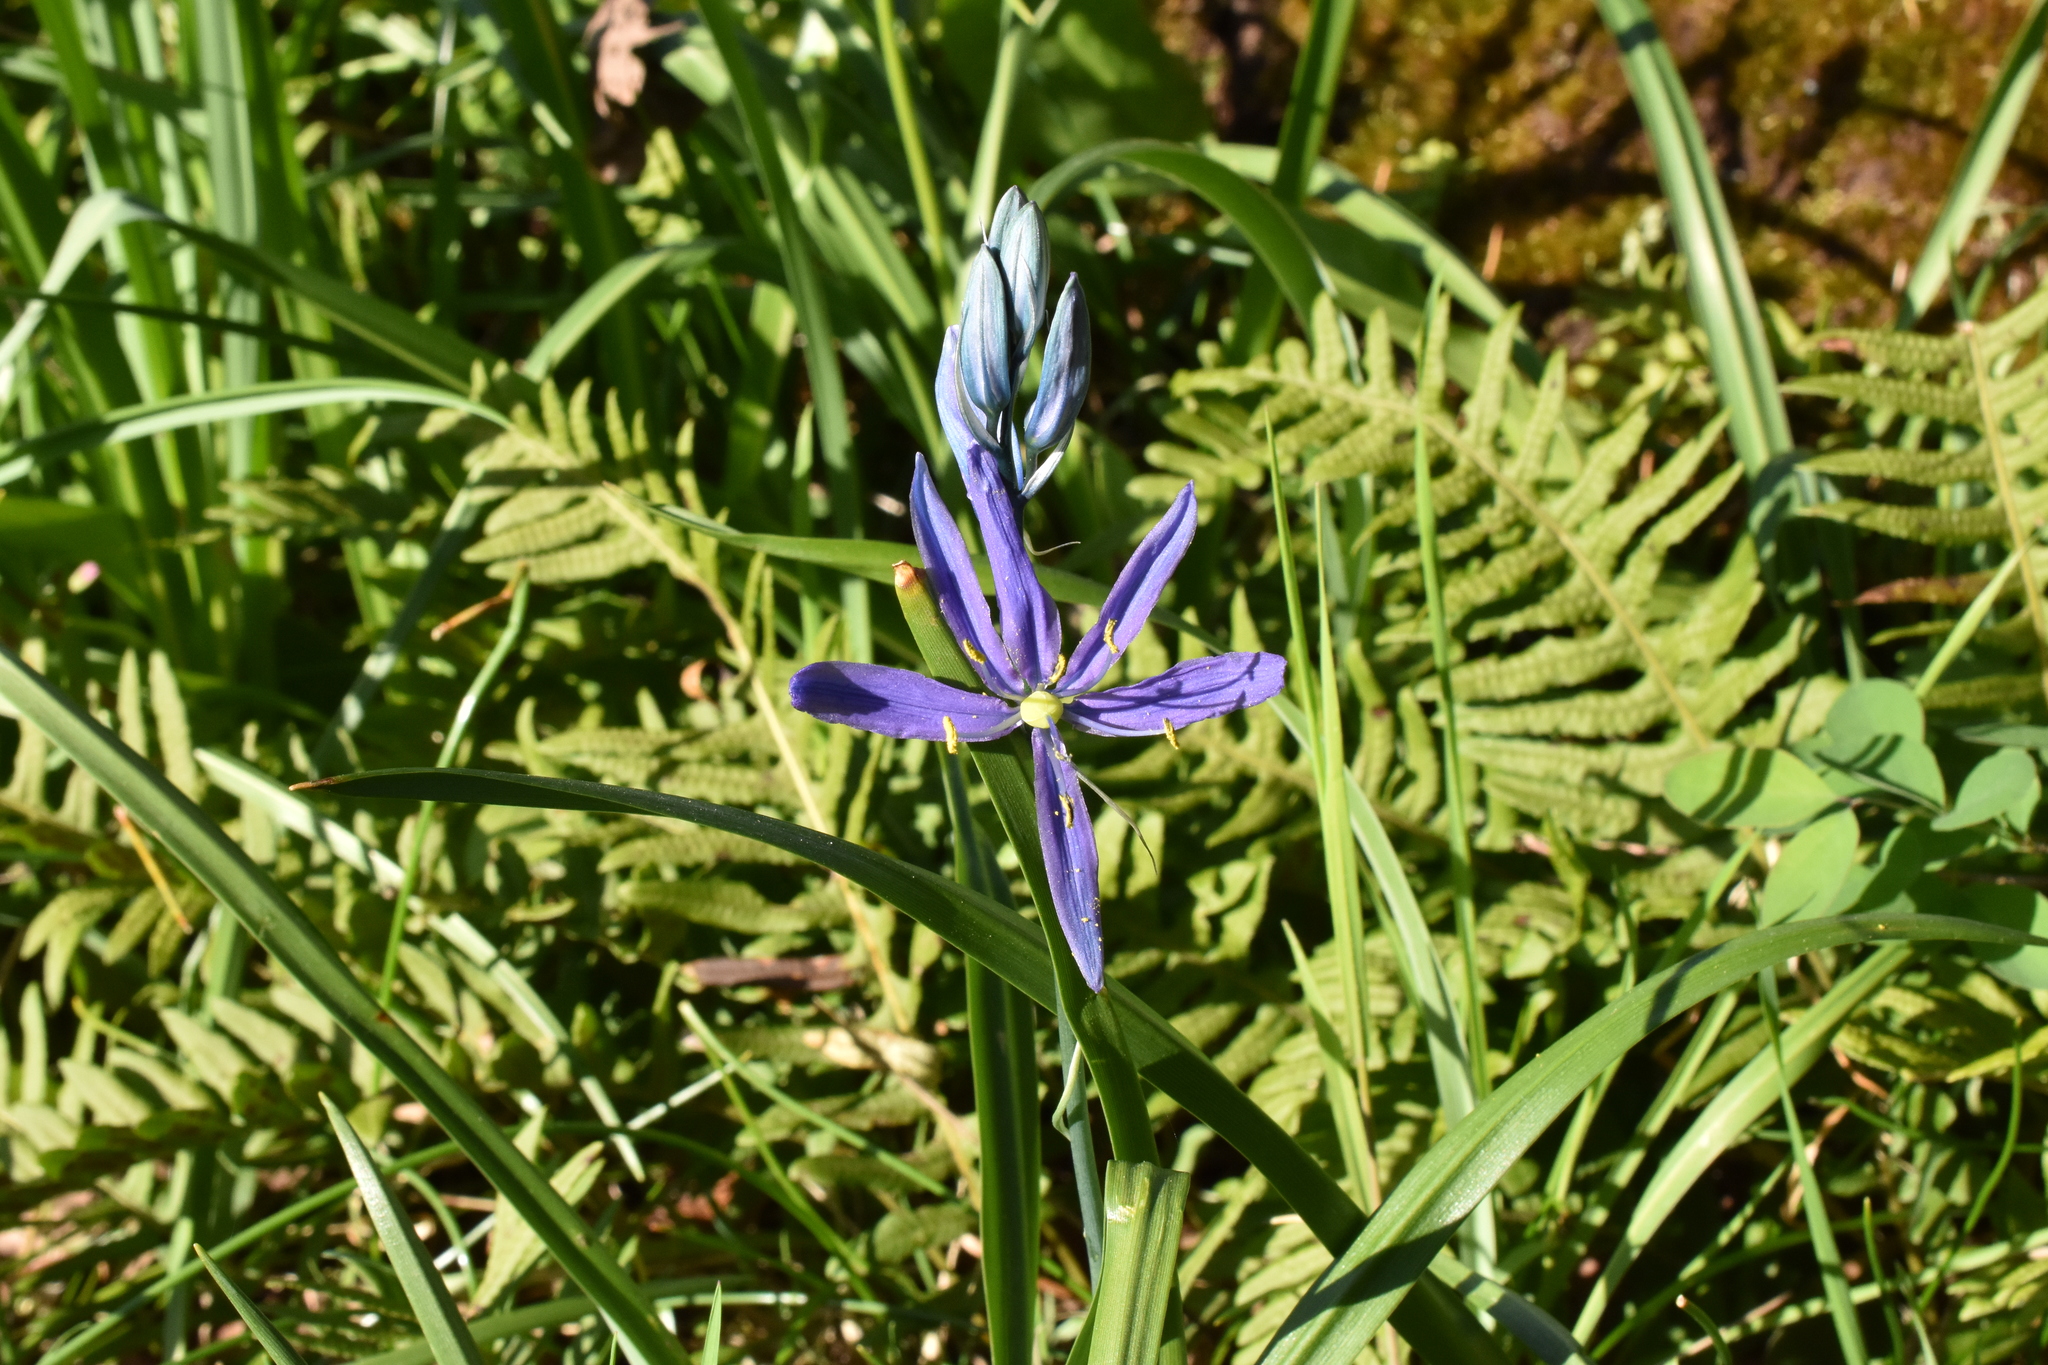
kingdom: Plantae
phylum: Tracheophyta
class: Liliopsida
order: Asparagales
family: Asparagaceae
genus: Camassia
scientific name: Camassia quamash
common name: Common camas
